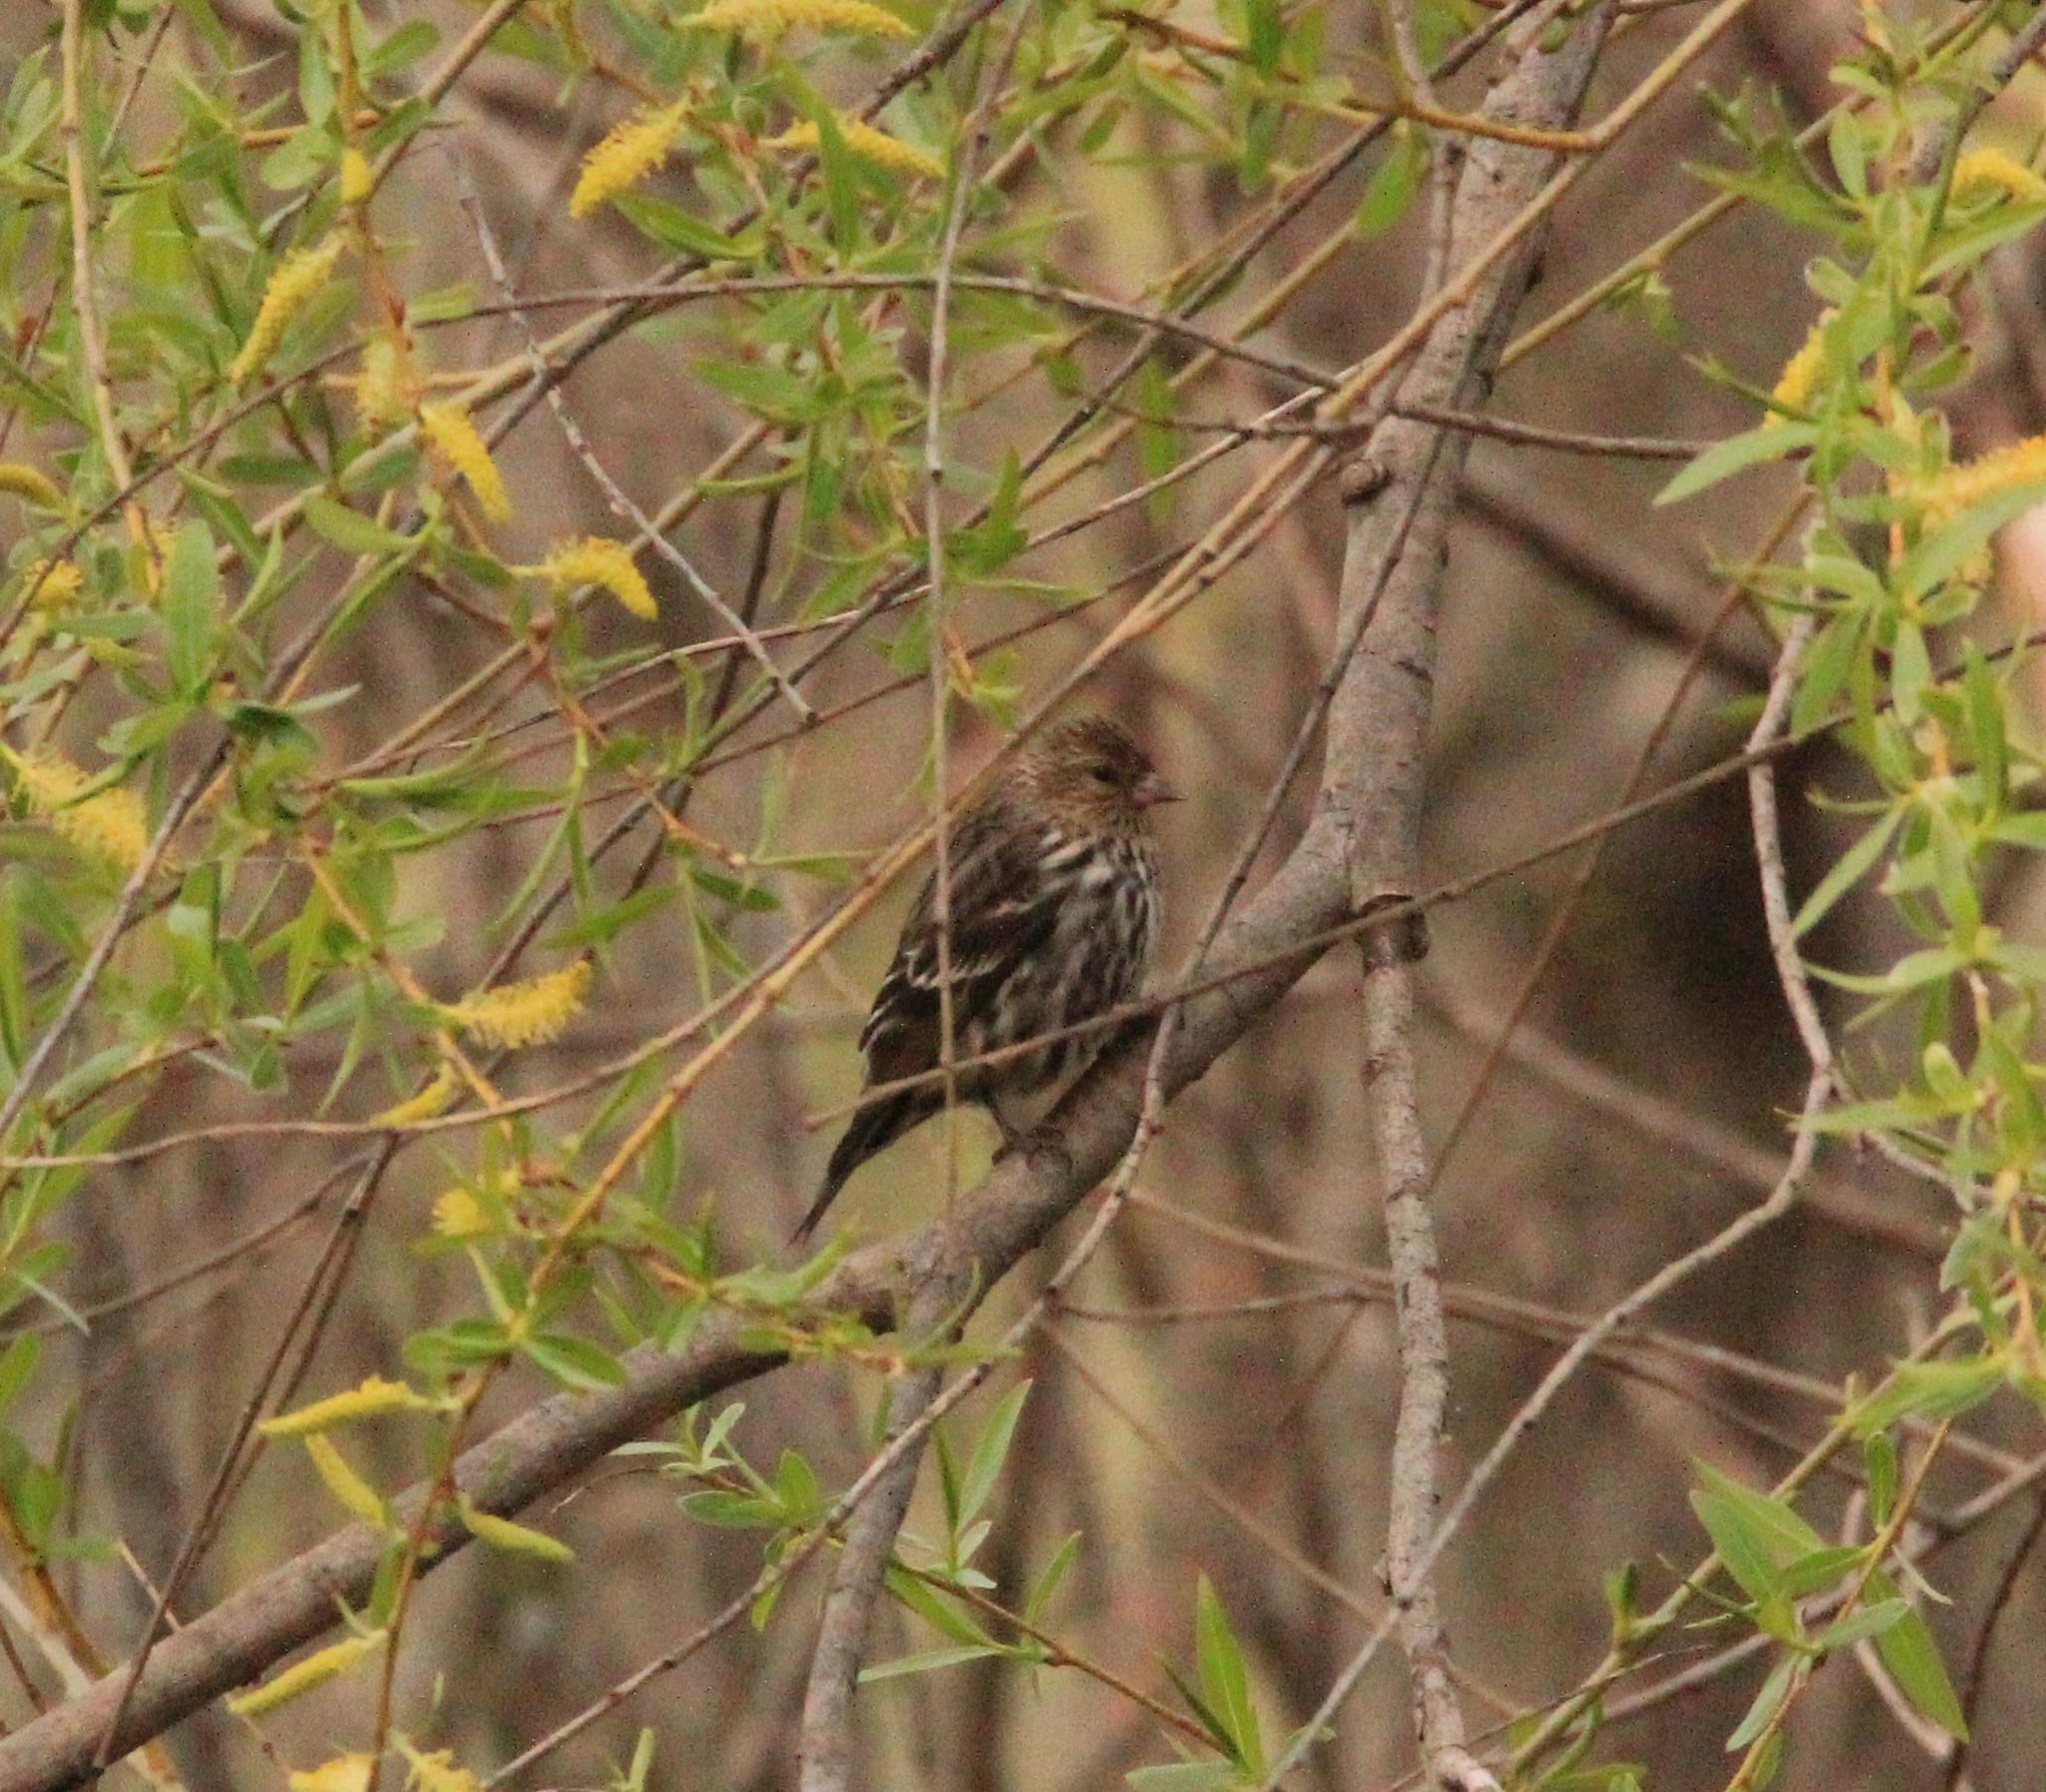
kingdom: Animalia
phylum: Chordata
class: Aves
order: Passeriformes
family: Fringillidae
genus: Spinus
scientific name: Spinus pinus
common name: Pine siskin
